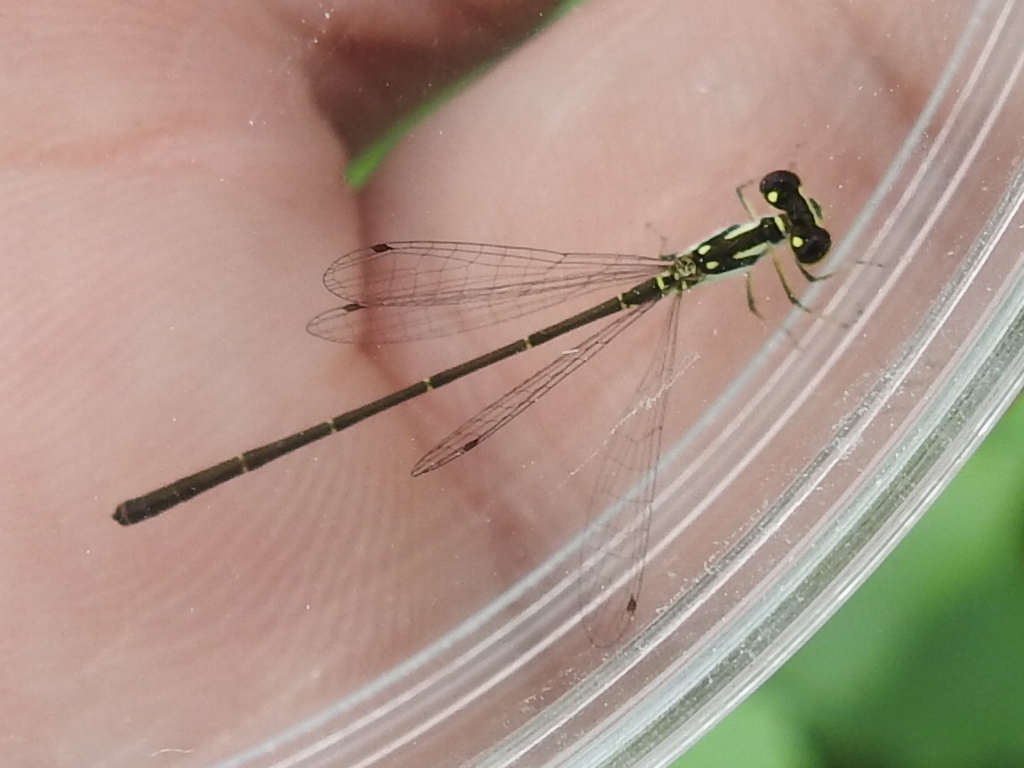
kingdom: Animalia
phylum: Arthropoda
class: Insecta
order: Odonata
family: Coenagrionidae
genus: Ischnura
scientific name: Ischnura posita
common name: Fragile forktail
